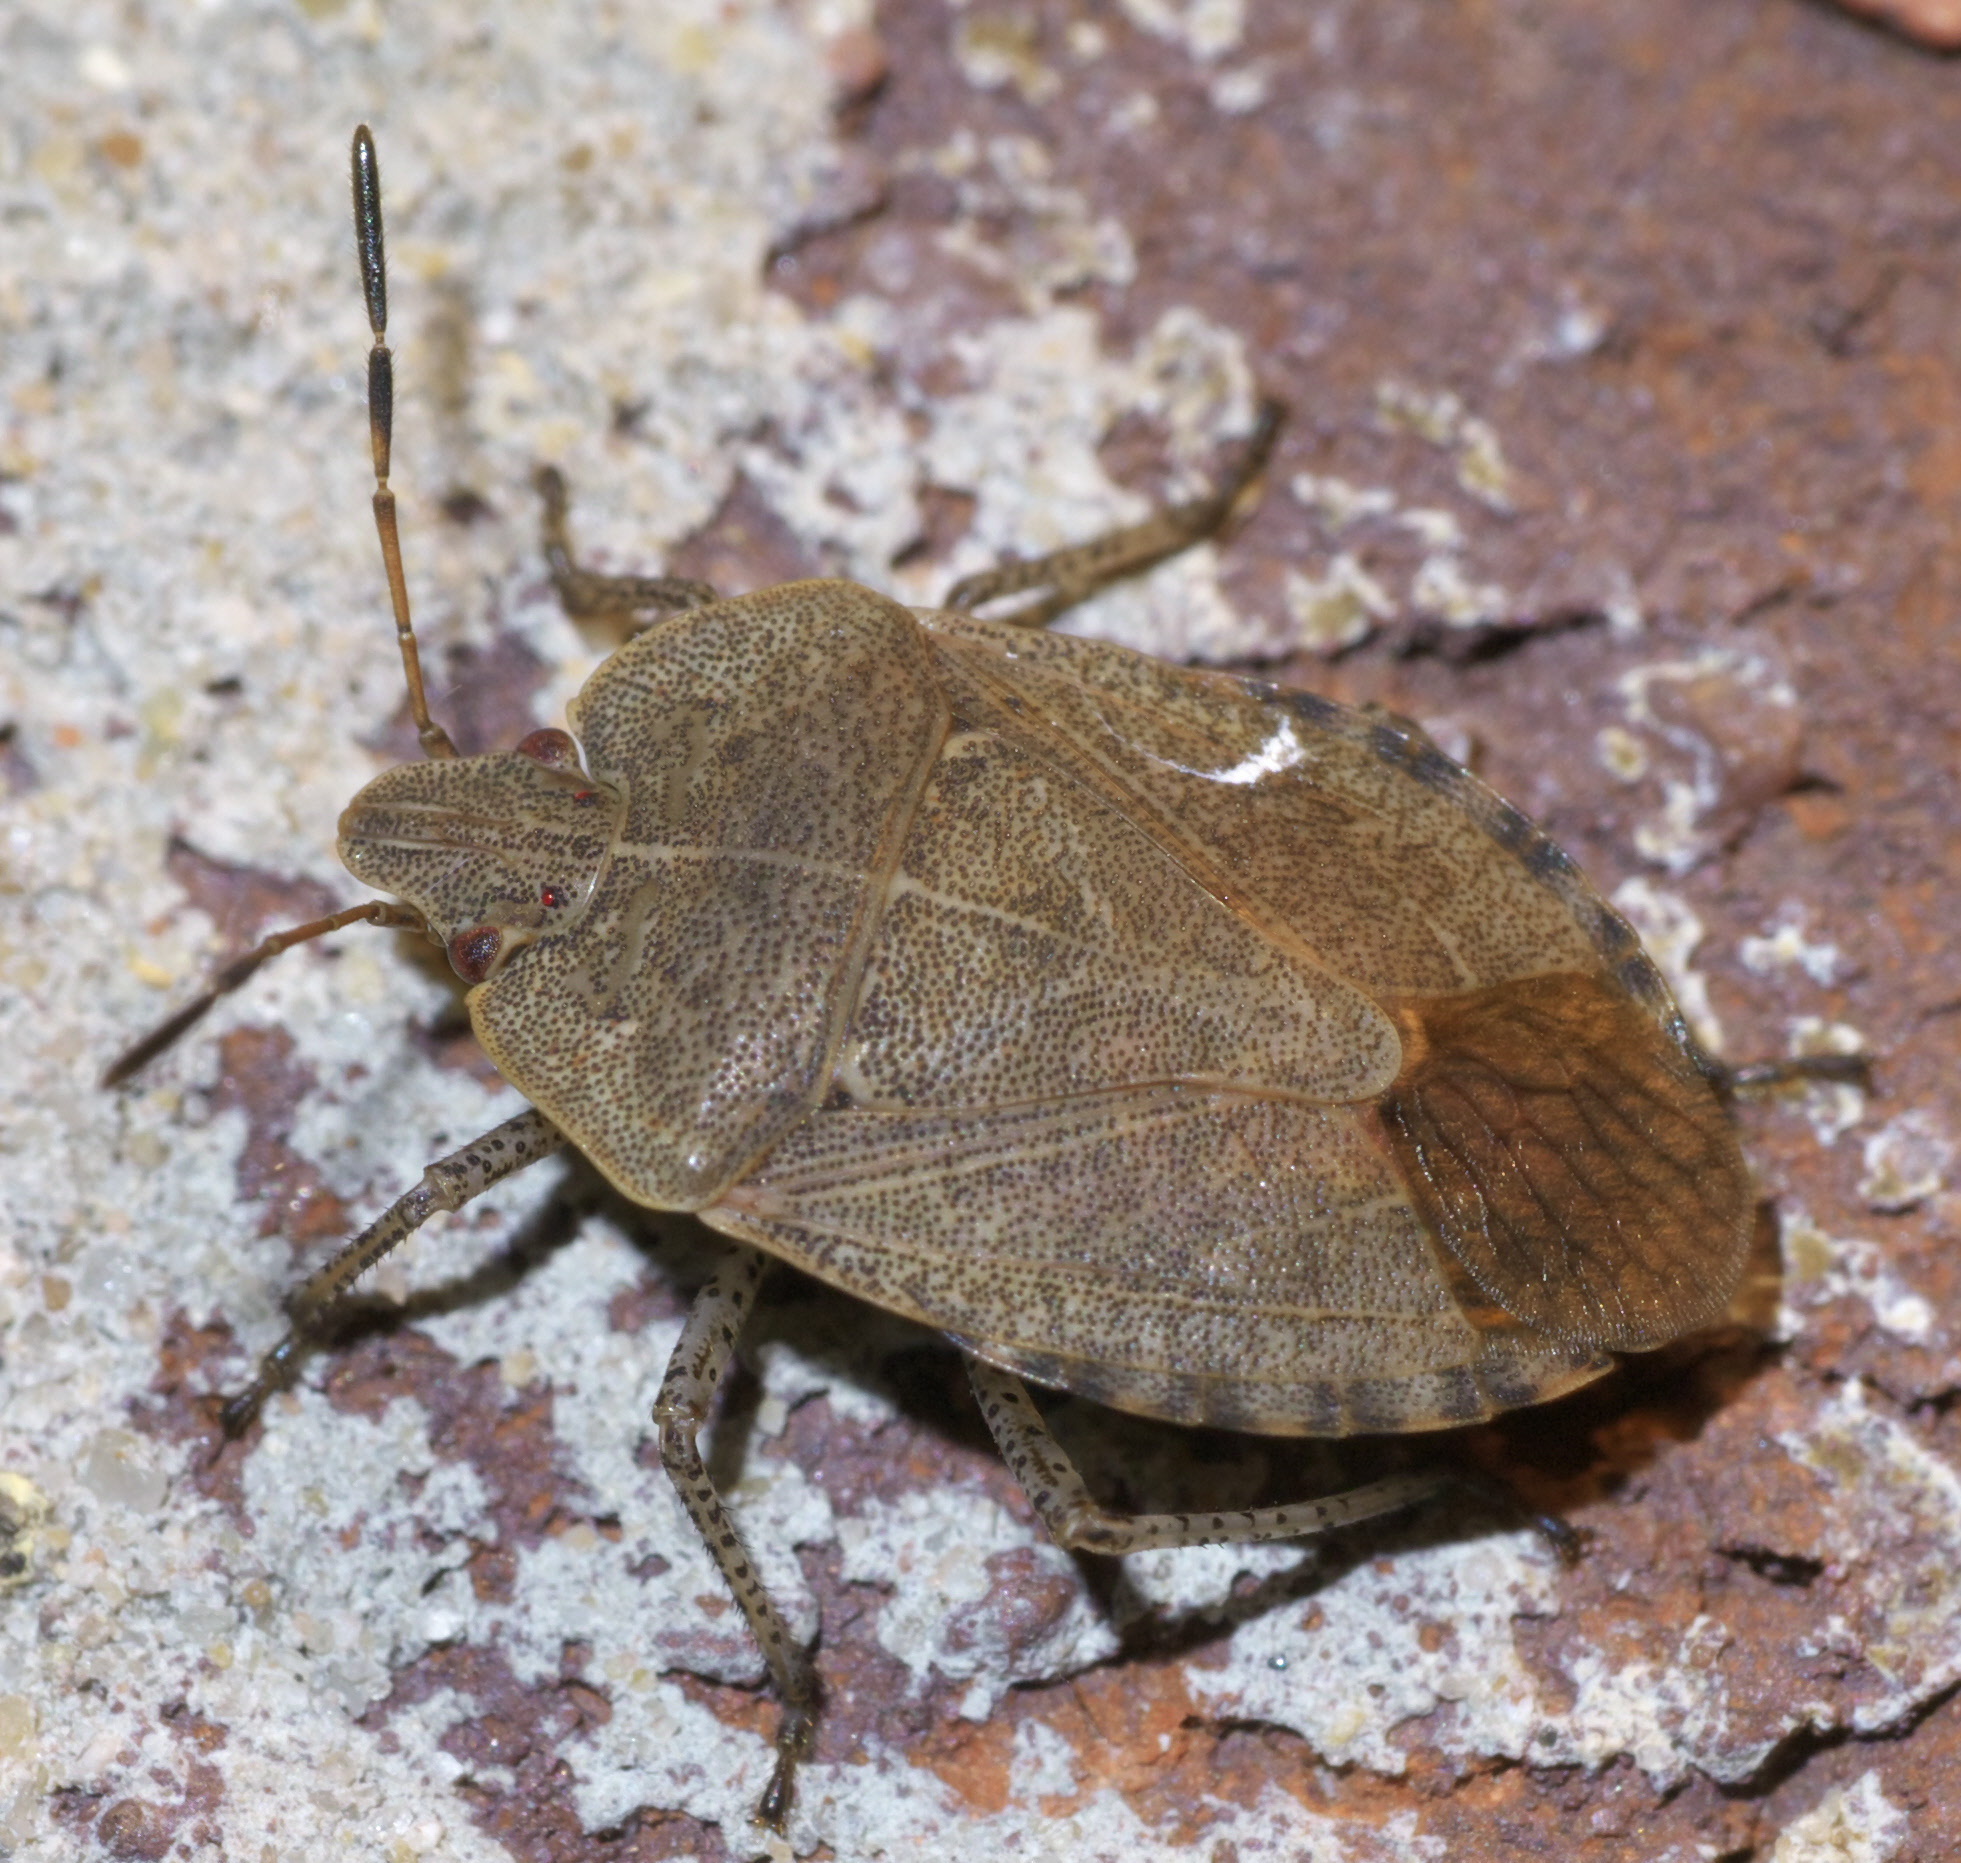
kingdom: Animalia
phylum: Arthropoda
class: Insecta
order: Hemiptera
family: Pentatomidae
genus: Menecles
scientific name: Menecles insertus
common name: Elf shoe stink bug
